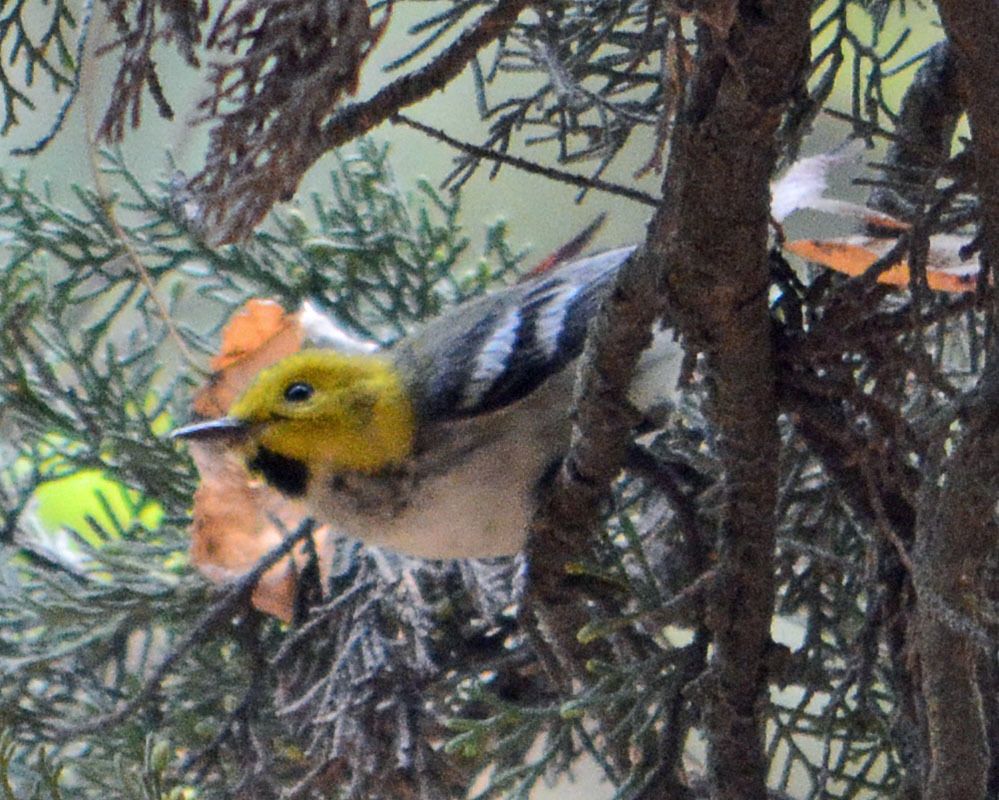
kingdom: Animalia
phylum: Chordata
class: Aves
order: Passeriformes
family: Parulidae
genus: Setophaga
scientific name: Setophaga occidentalis
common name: Hermit warbler
